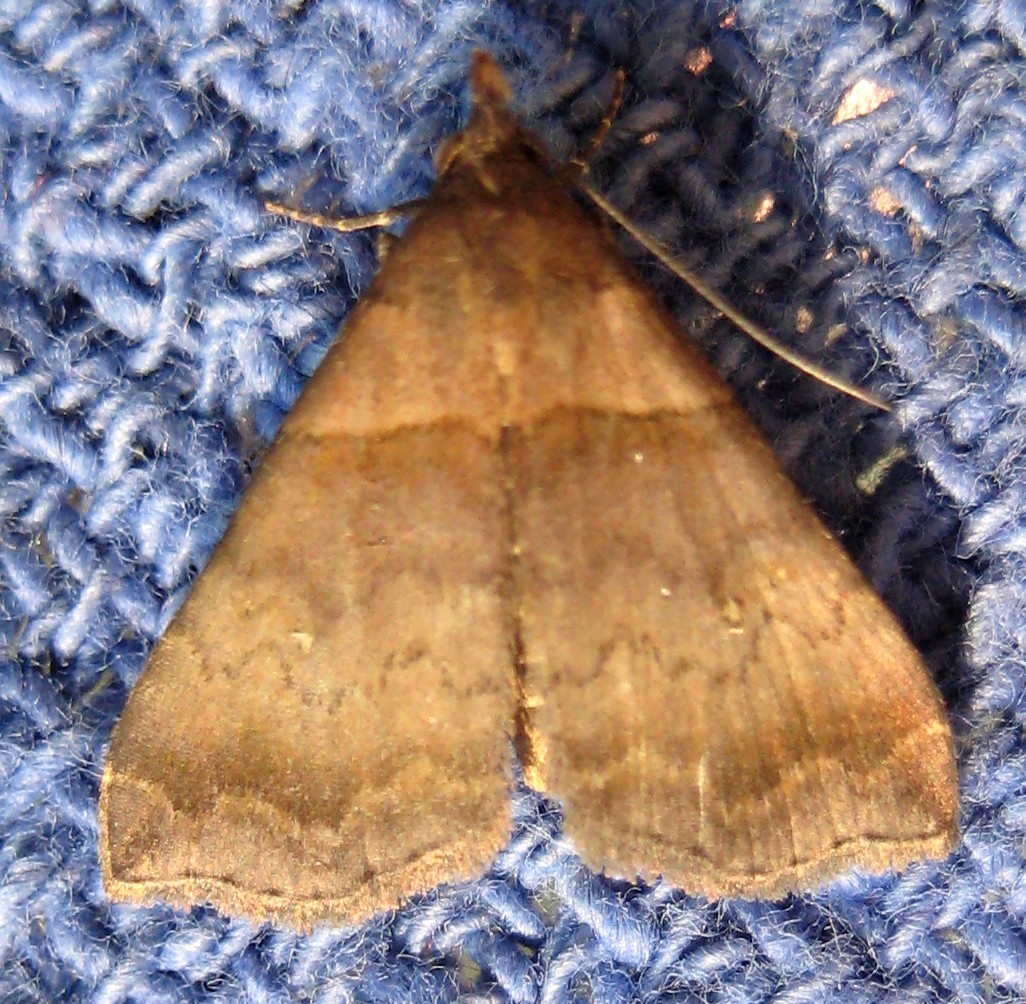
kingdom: Animalia
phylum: Arthropoda
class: Insecta
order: Lepidoptera
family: Erebidae
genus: Lascoria
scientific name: Lascoria ambigualis
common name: Ambiguous moth
